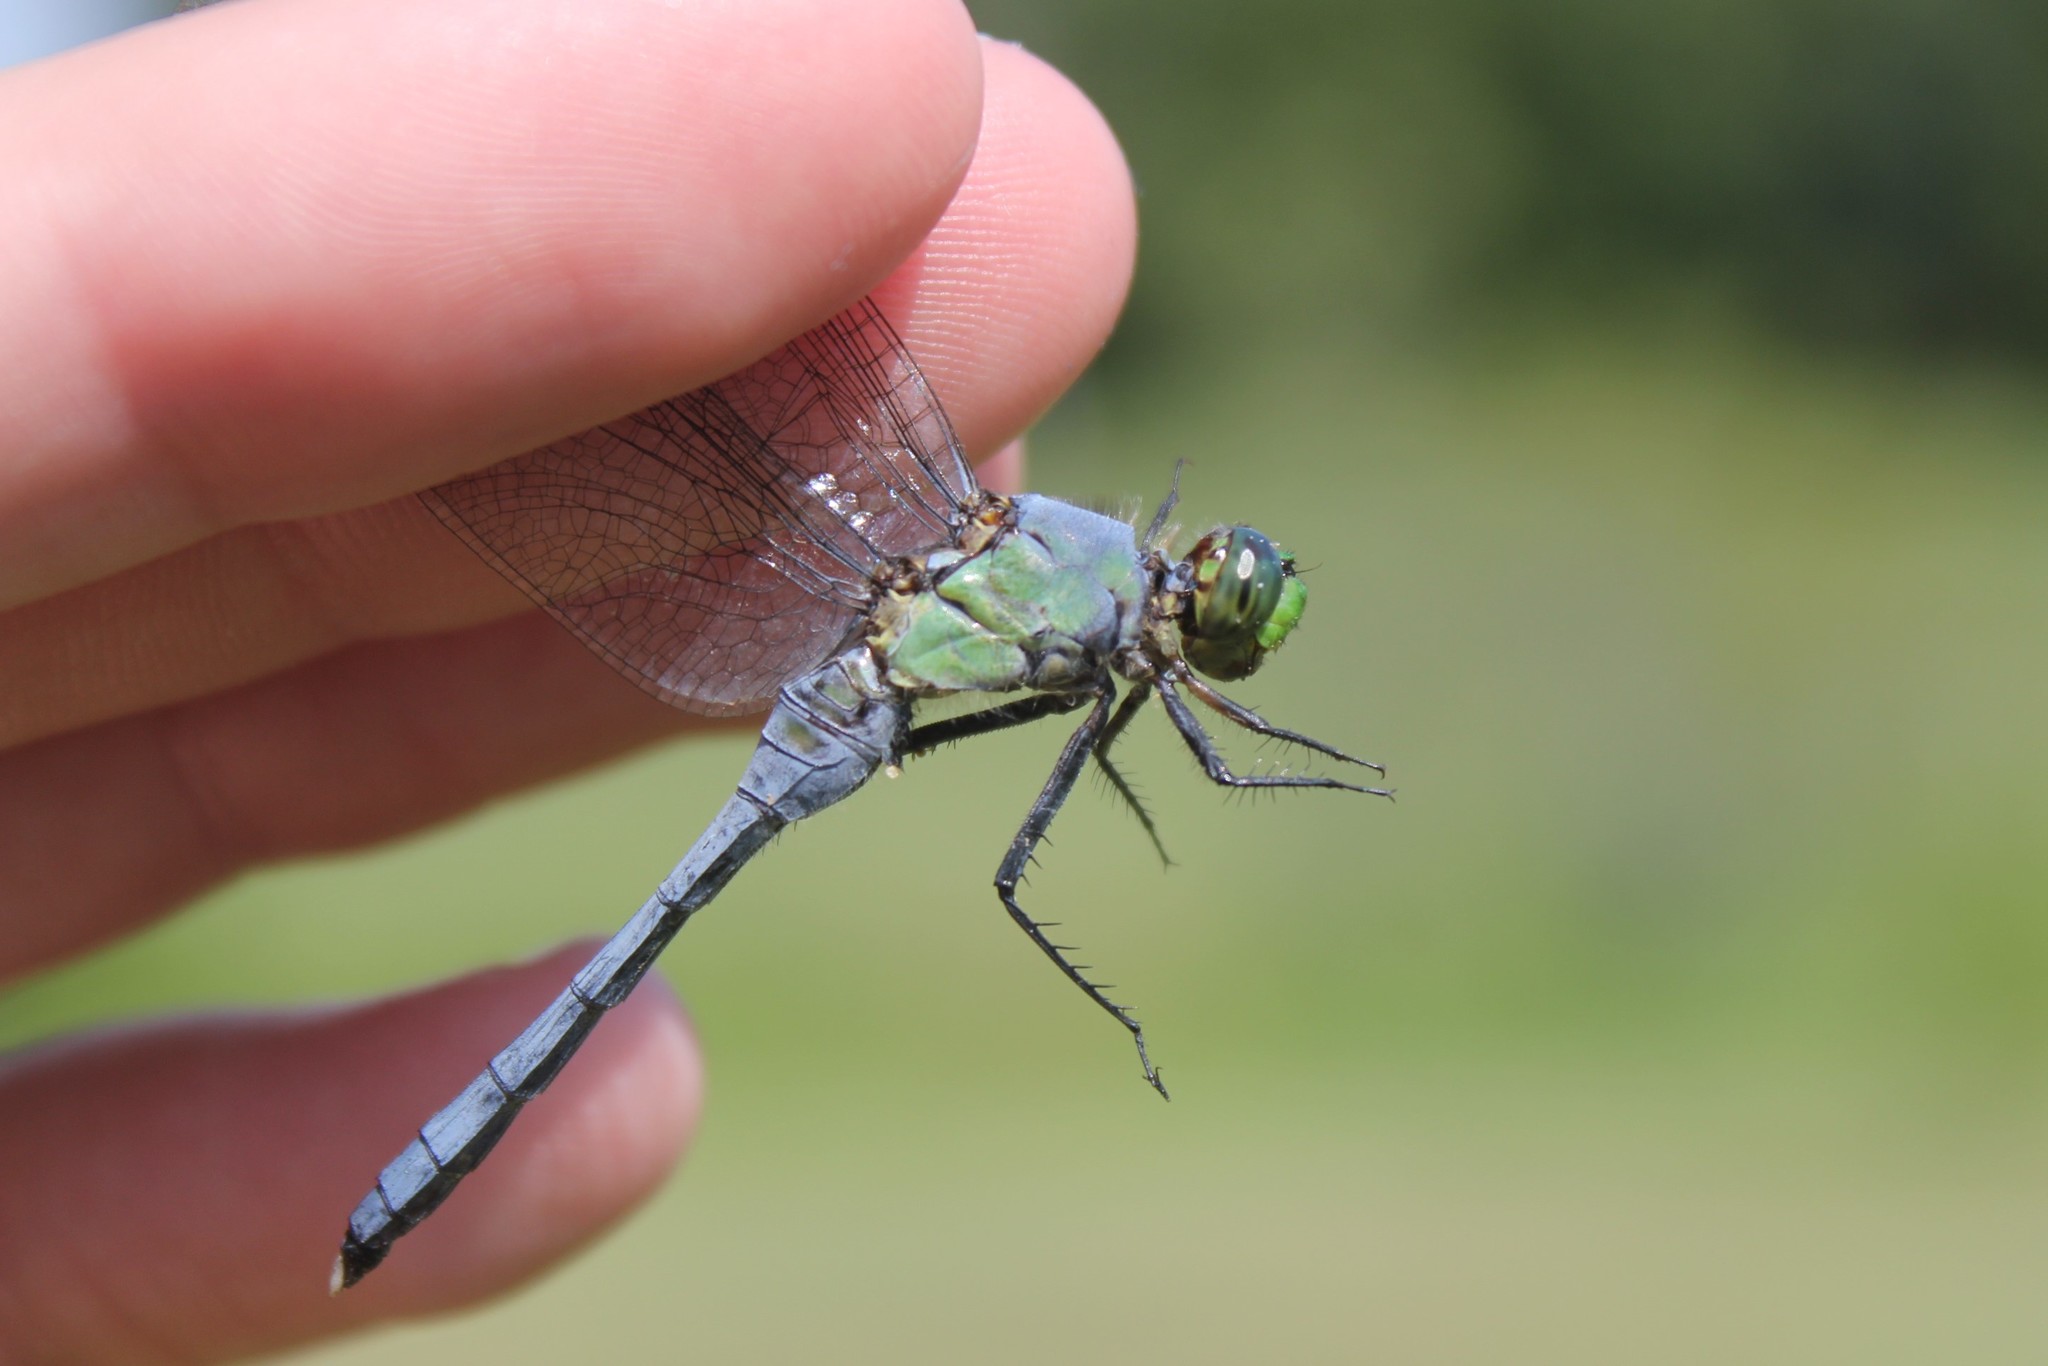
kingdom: Animalia
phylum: Arthropoda
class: Insecta
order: Odonata
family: Libellulidae
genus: Erythemis
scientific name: Erythemis simplicicollis
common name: Eastern pondhawk
